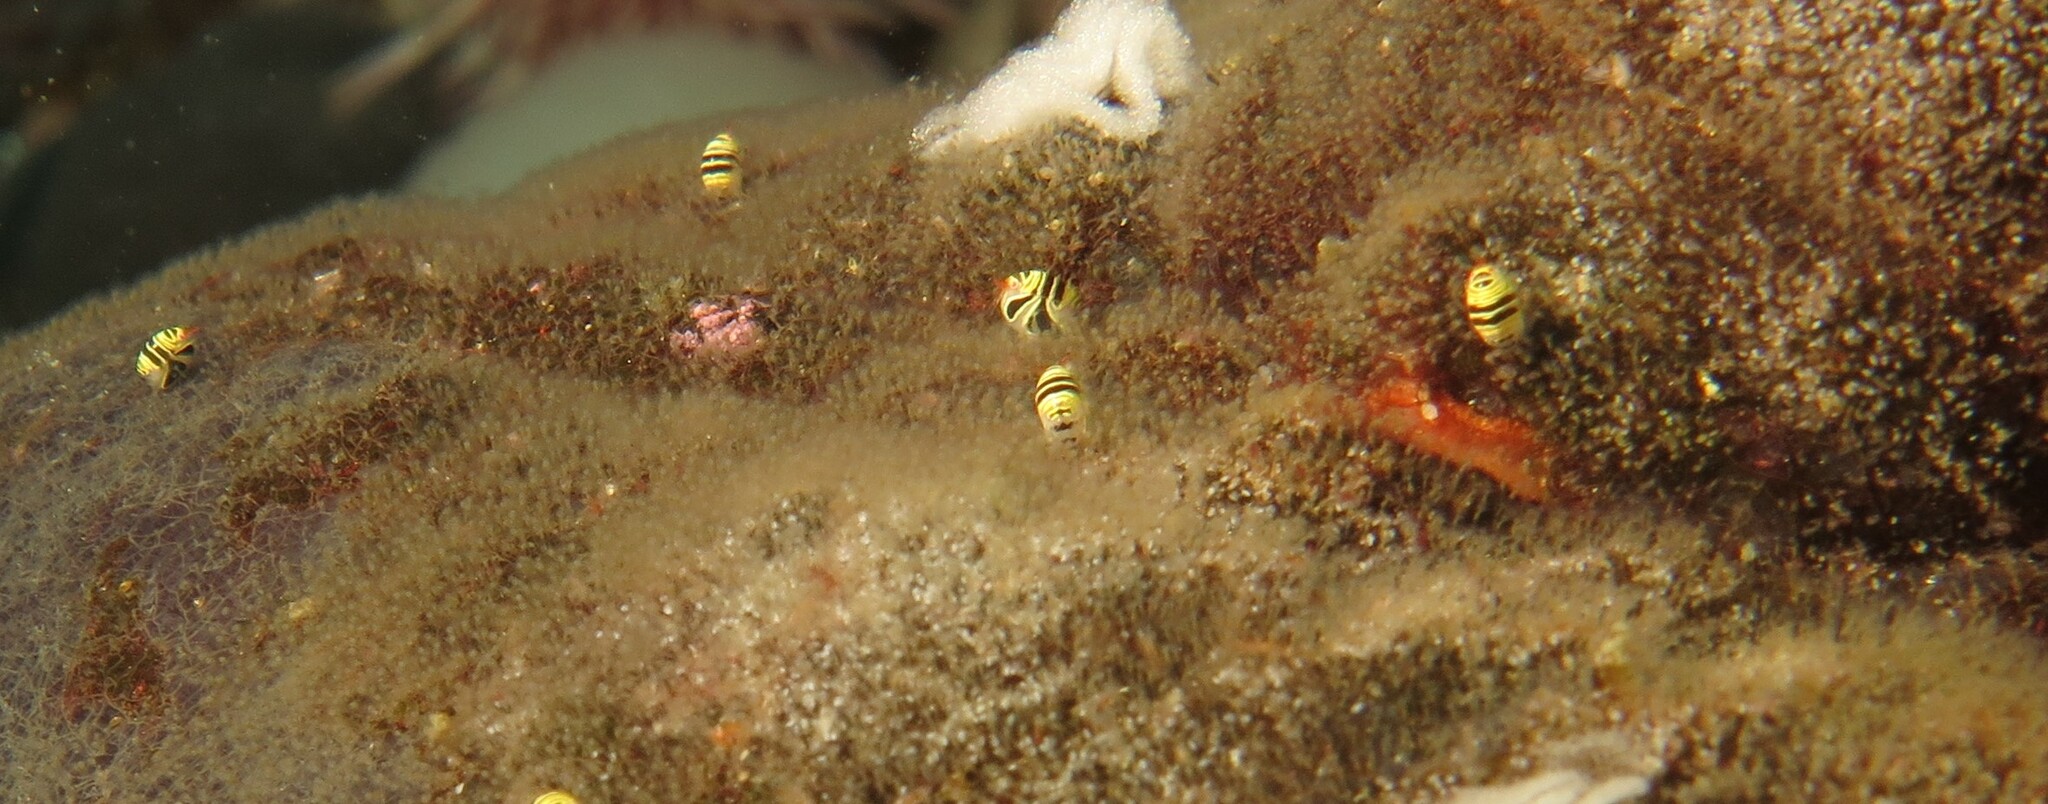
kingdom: Animalia
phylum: Arthropoda
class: Malacostraca
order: Amphipoda
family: Cyproideidae
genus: Cyproidea
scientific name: Cyproidea ornata
